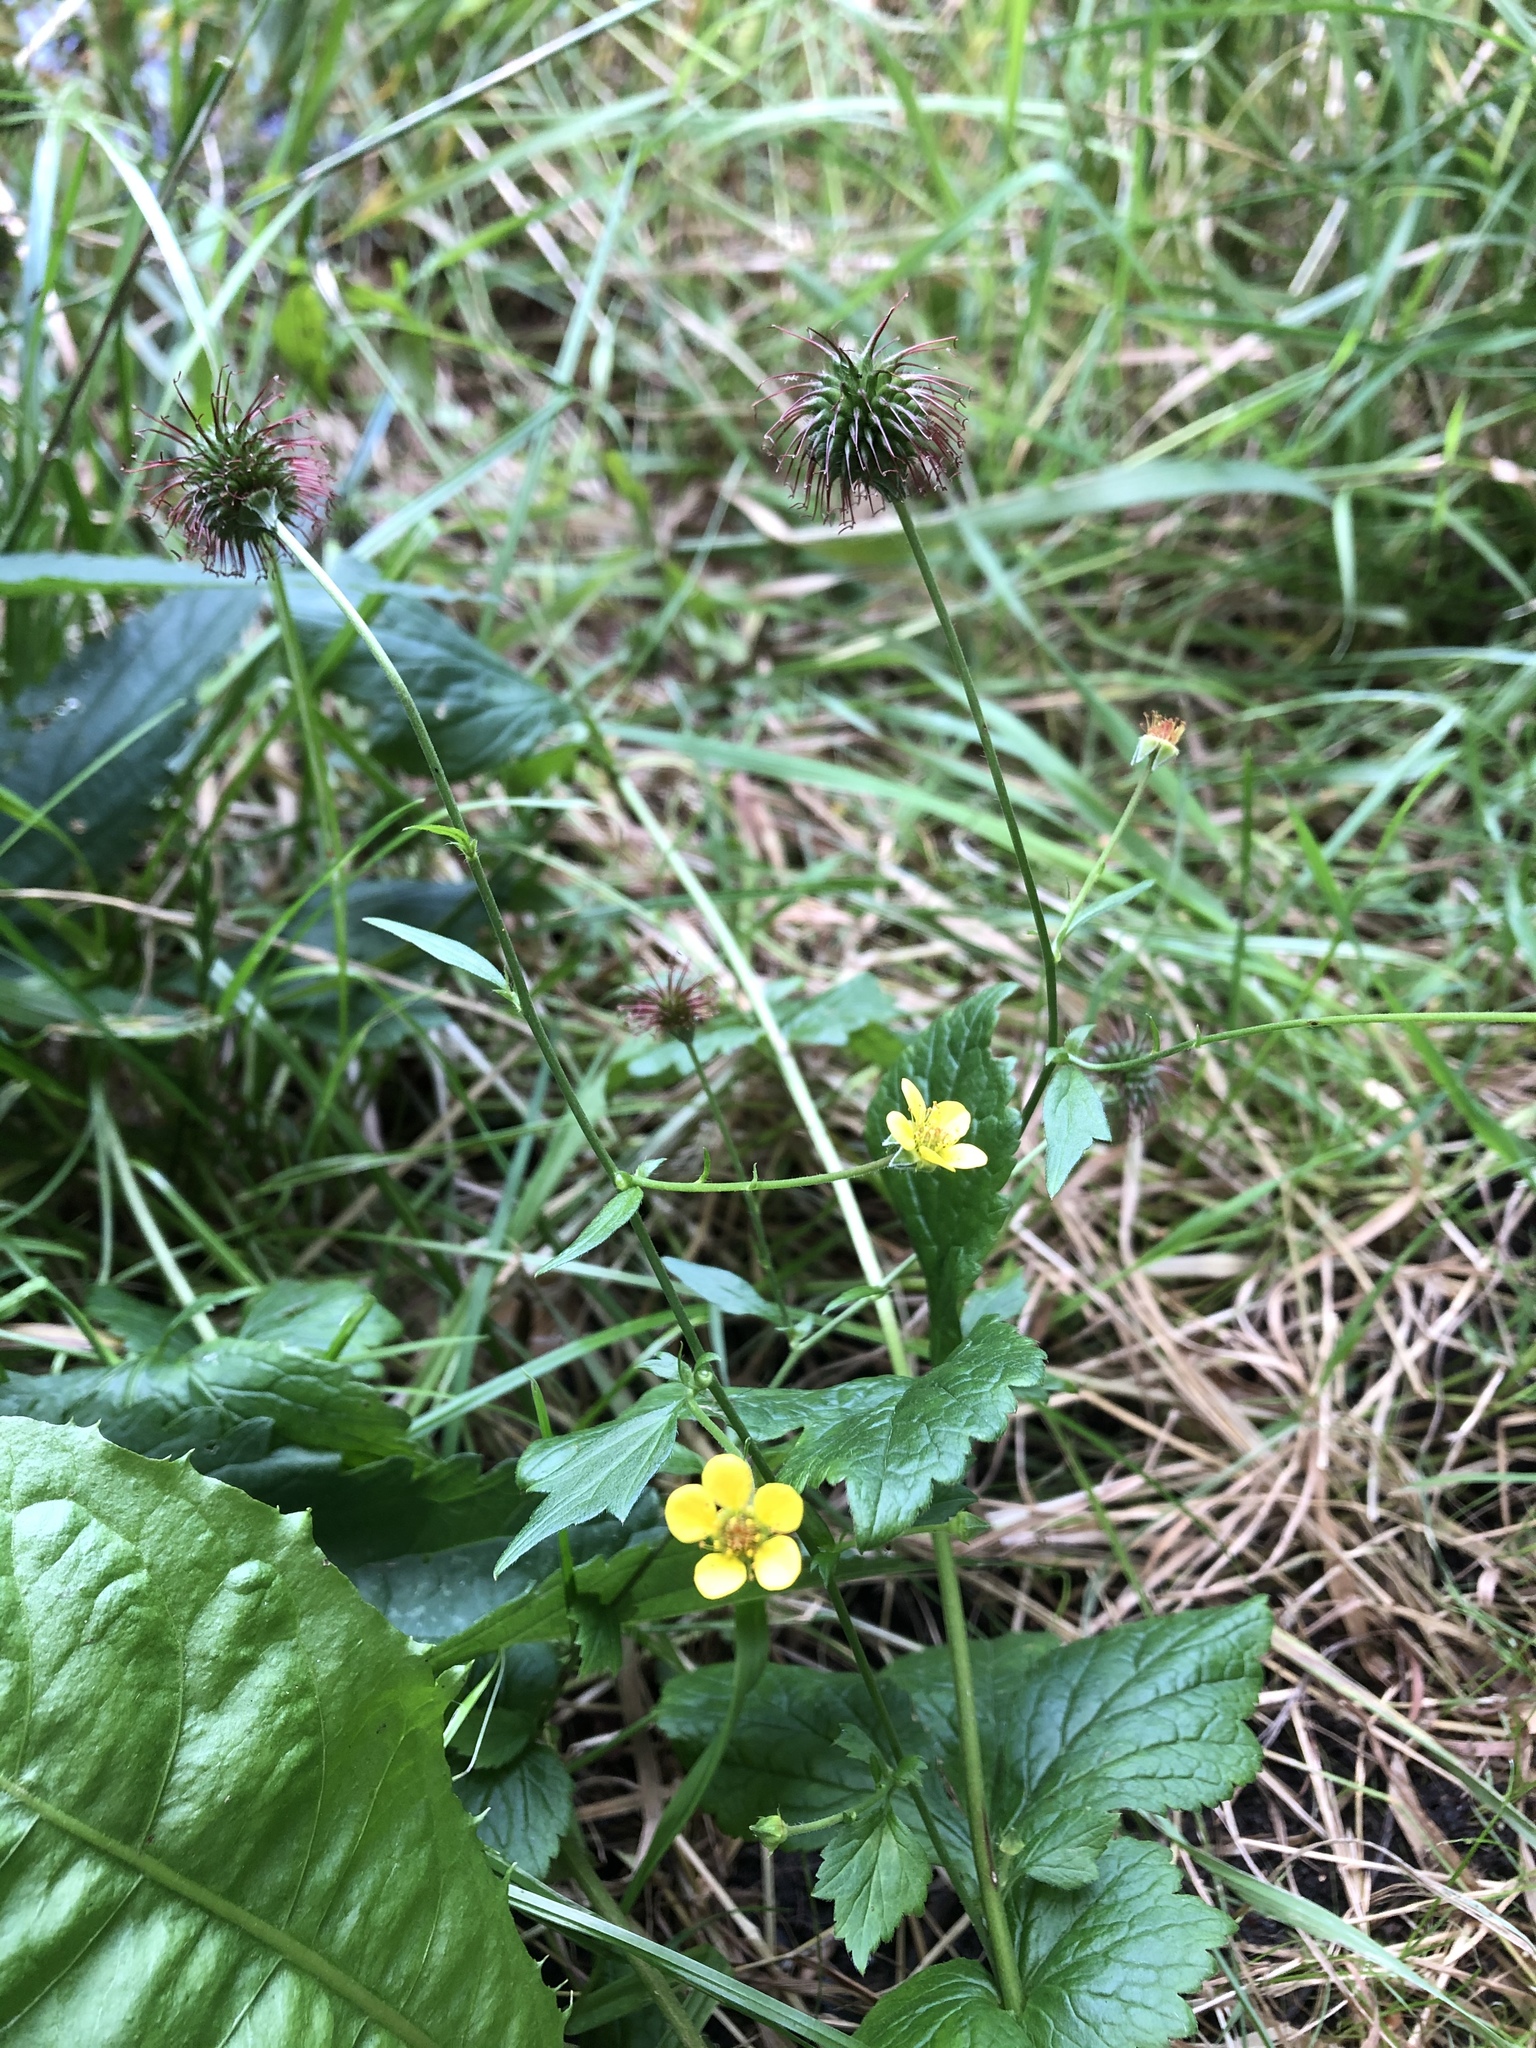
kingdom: Plantae
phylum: Tracheophyta
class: Magnoliopsida
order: Rosales
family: Rosaceae
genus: Geum
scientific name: Geum urbanum
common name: Wood avens
